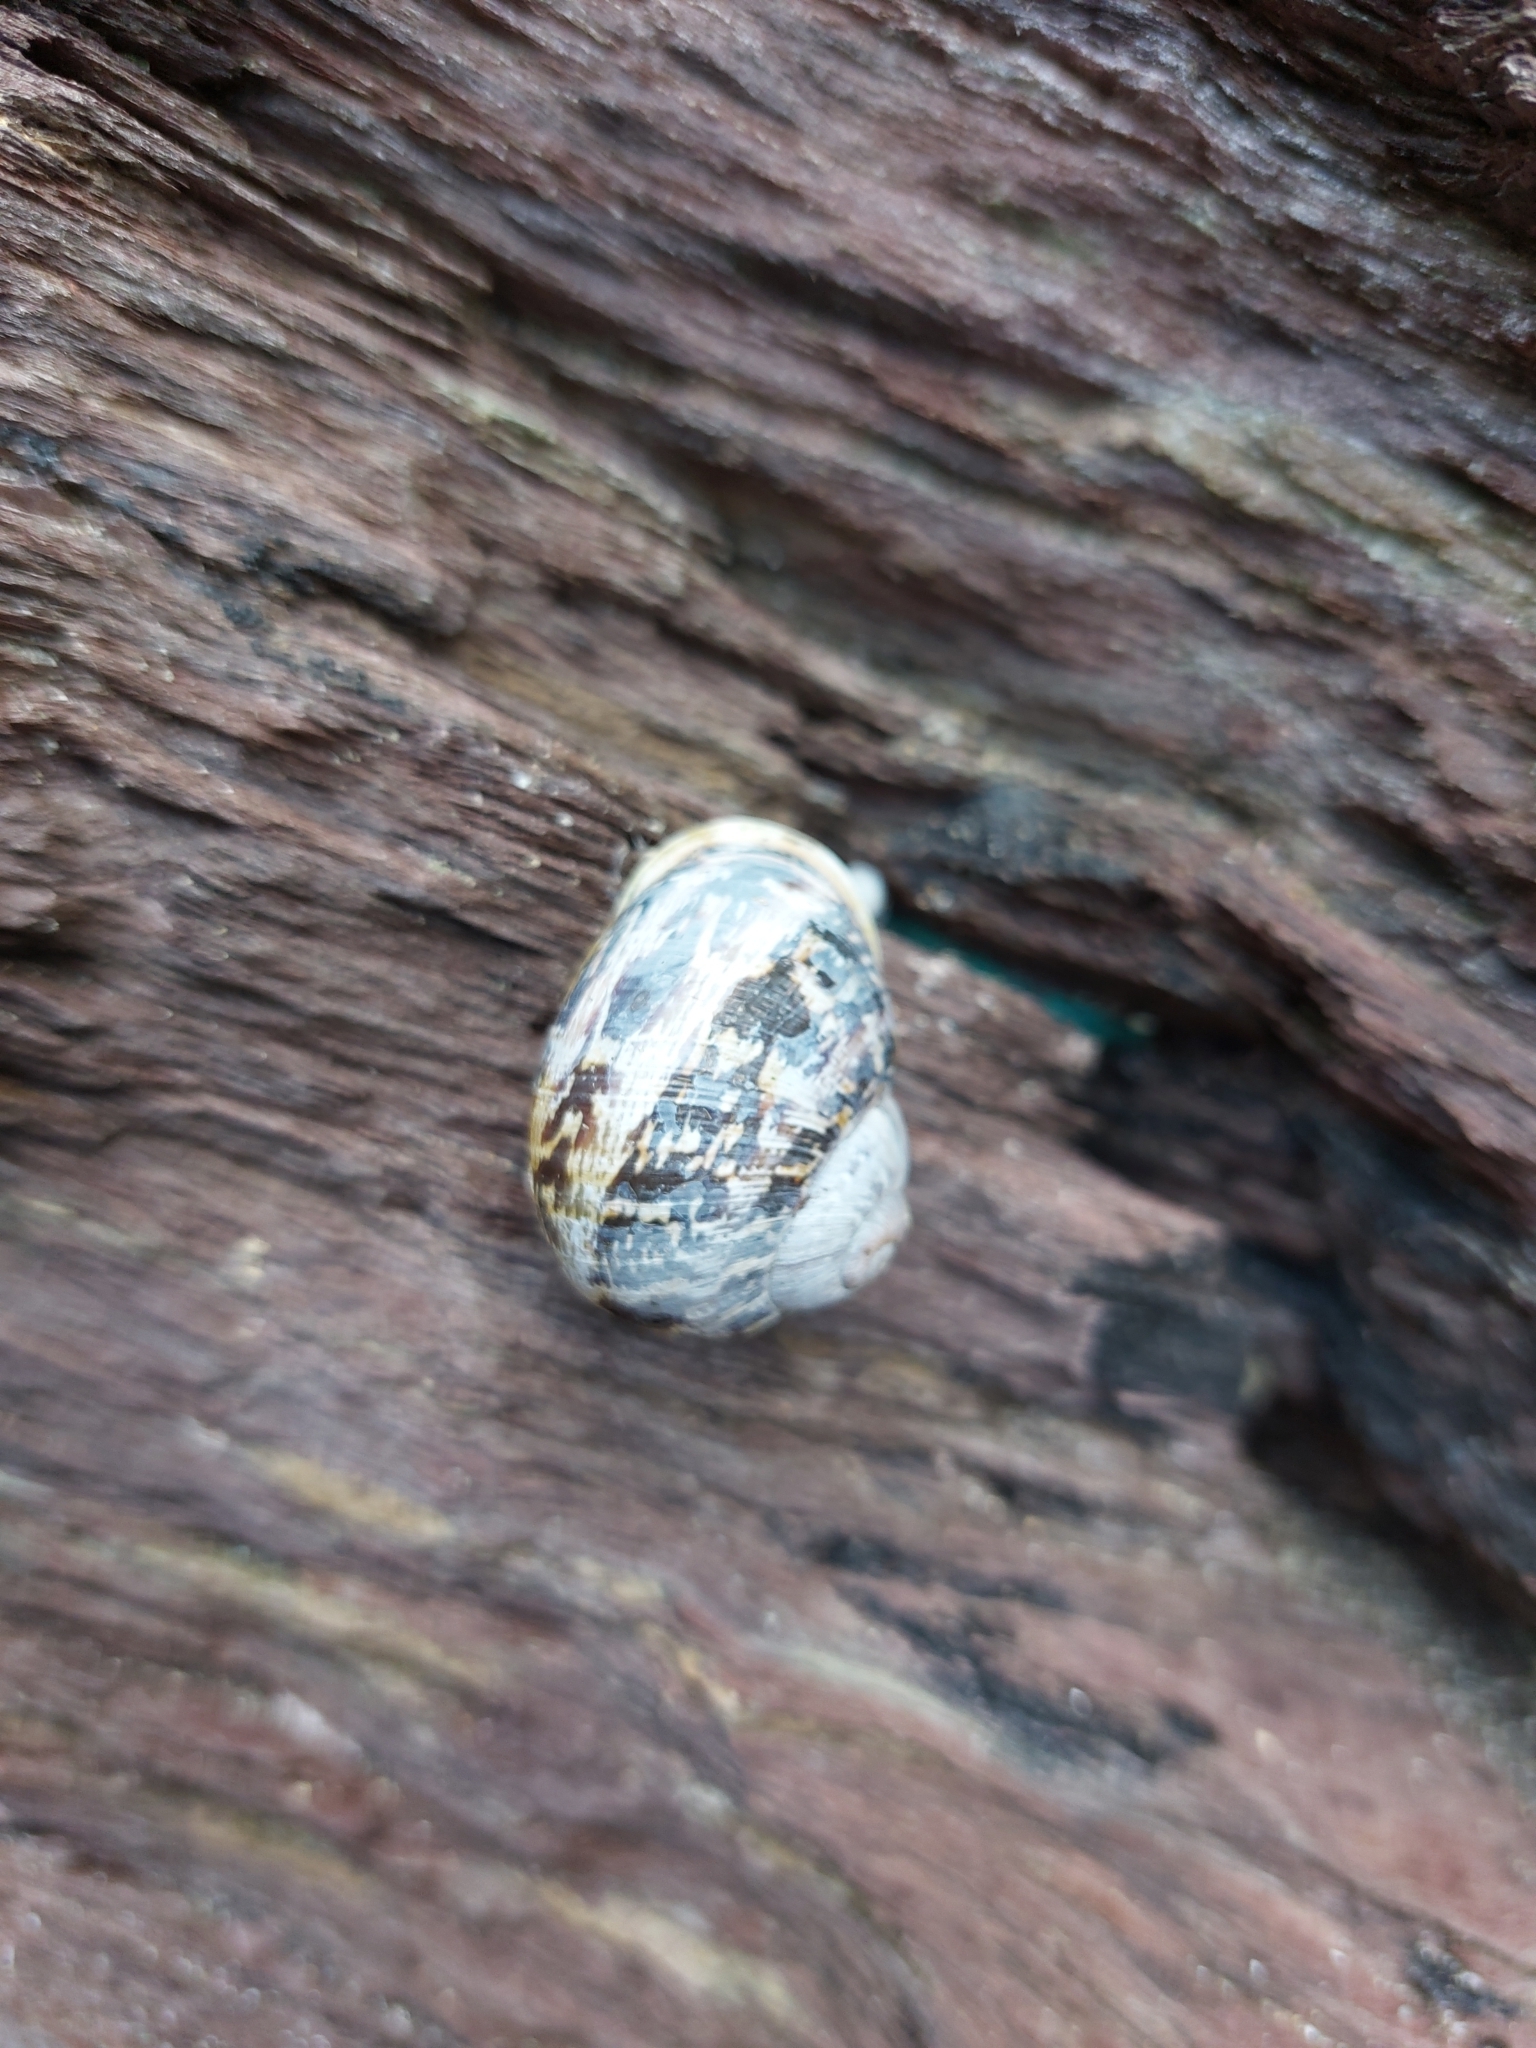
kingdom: Animalia
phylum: Mollusca
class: Gastropoda
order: Stylommatophora
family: Helicidae
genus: Cornu
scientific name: Cornu aspersum
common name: Brown garden snail
